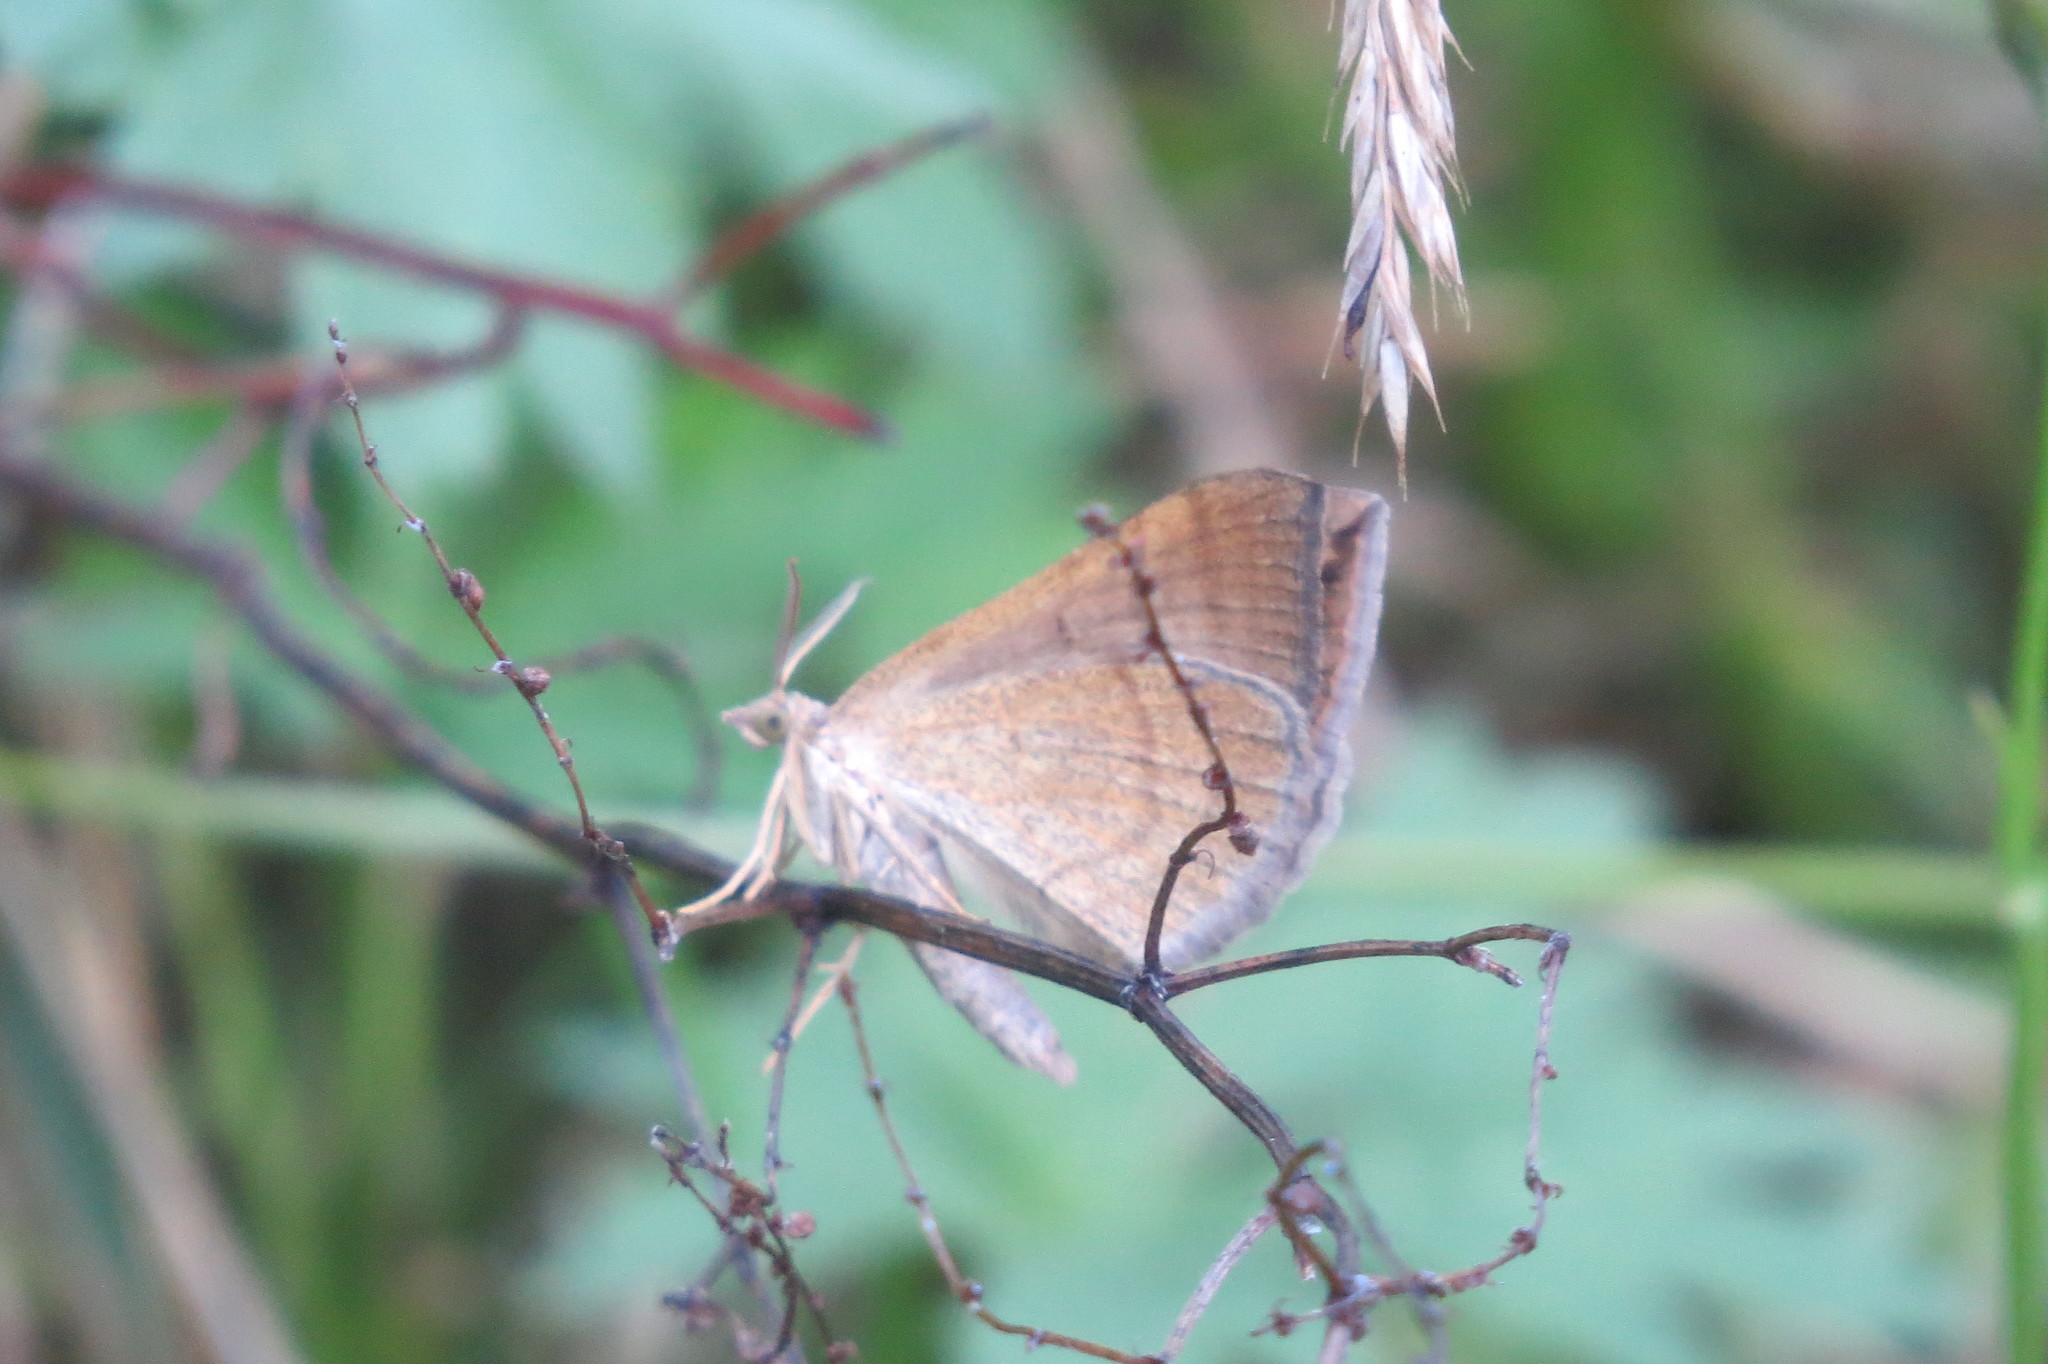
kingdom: Animalia
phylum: Arthropoda
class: Insecta
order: Lepidoptera
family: Geometridae
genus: Scotopteryx
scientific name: Scotopteryx chenopodiata
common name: Shaded broad-bar
